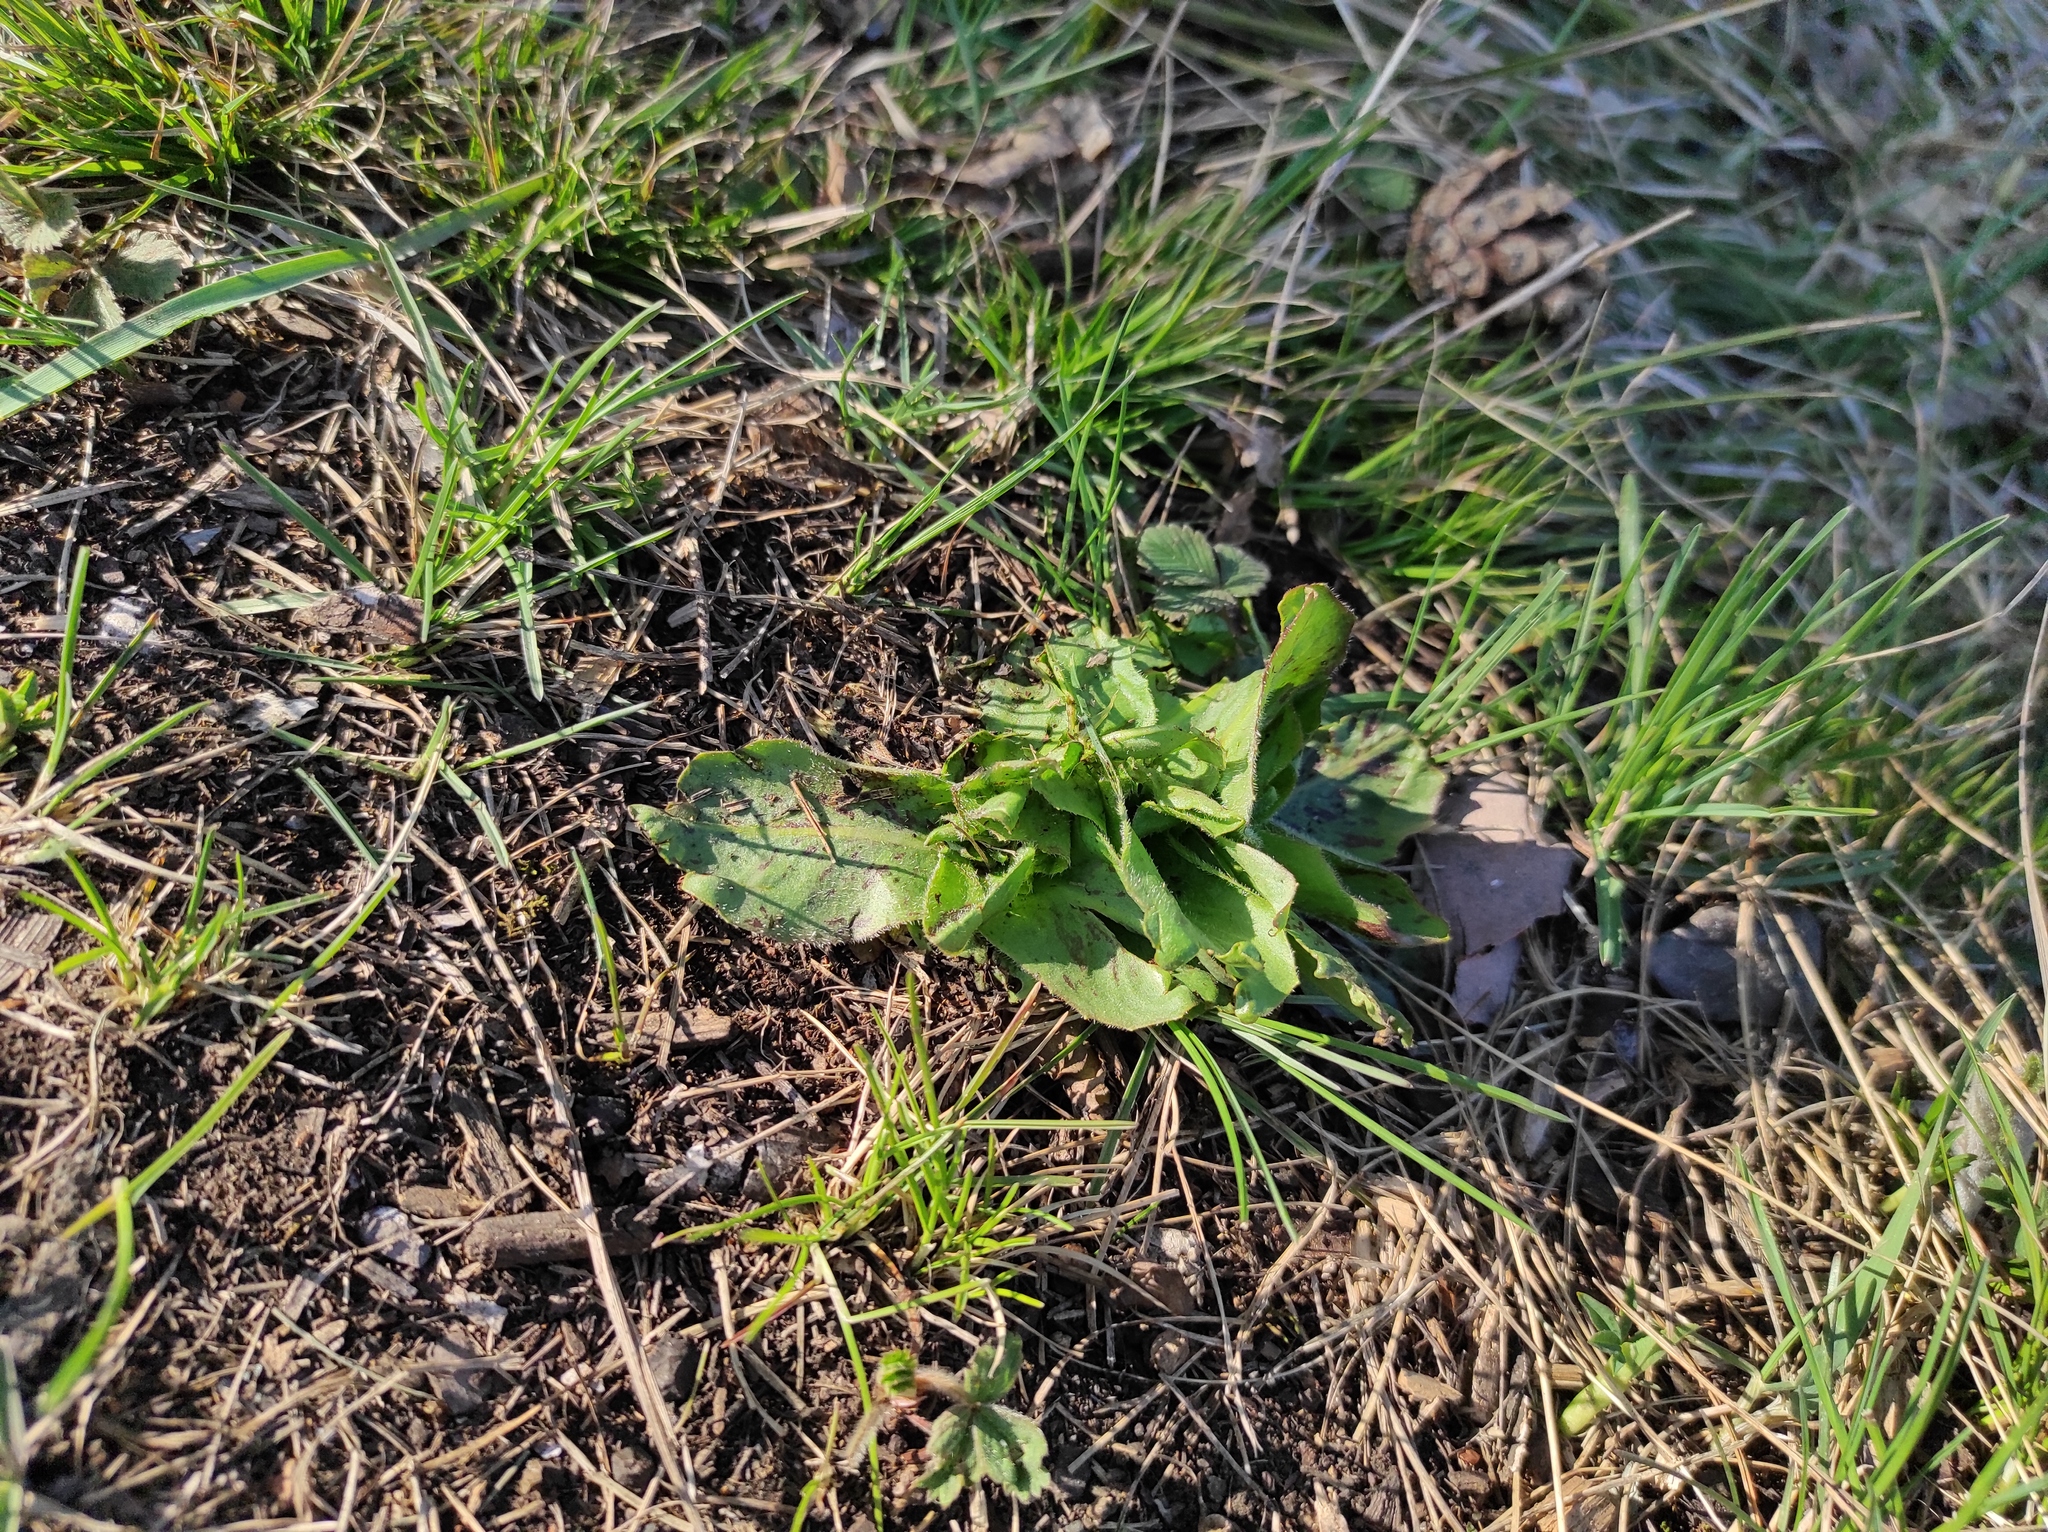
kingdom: Plantae
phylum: Tracheophyta
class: Magnoliopsida
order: Asterales
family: Asteraceae
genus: Trommsdorffia
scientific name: Trommsdorffia maculata
